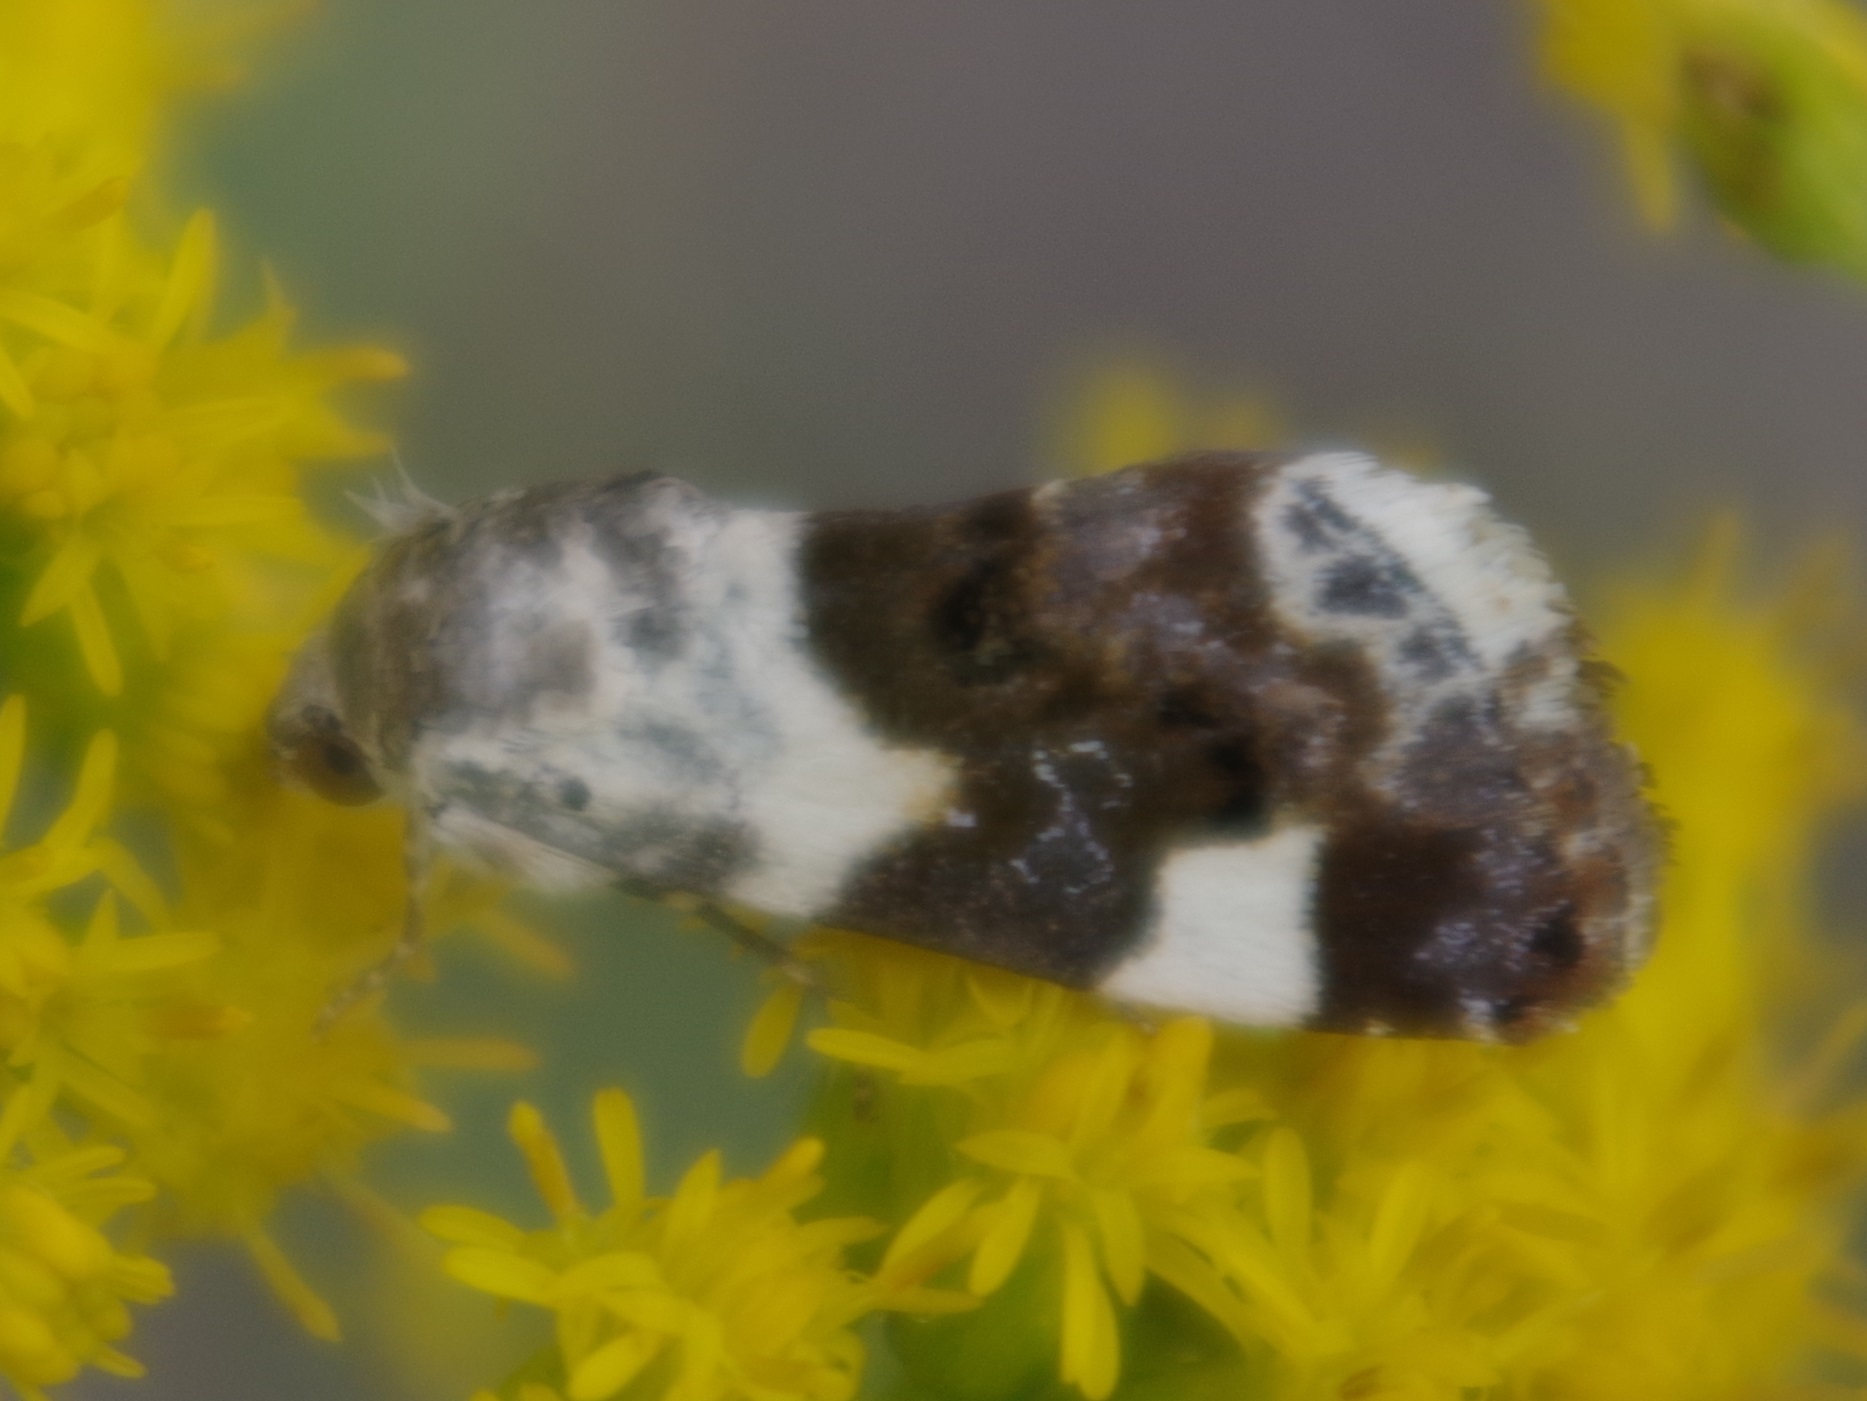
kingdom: Animalia
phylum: Arthropoda
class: Insecta
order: Lepidoptera
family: Noctuidae
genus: Acontia
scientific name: Acontia lucida
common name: Pale shoulder
